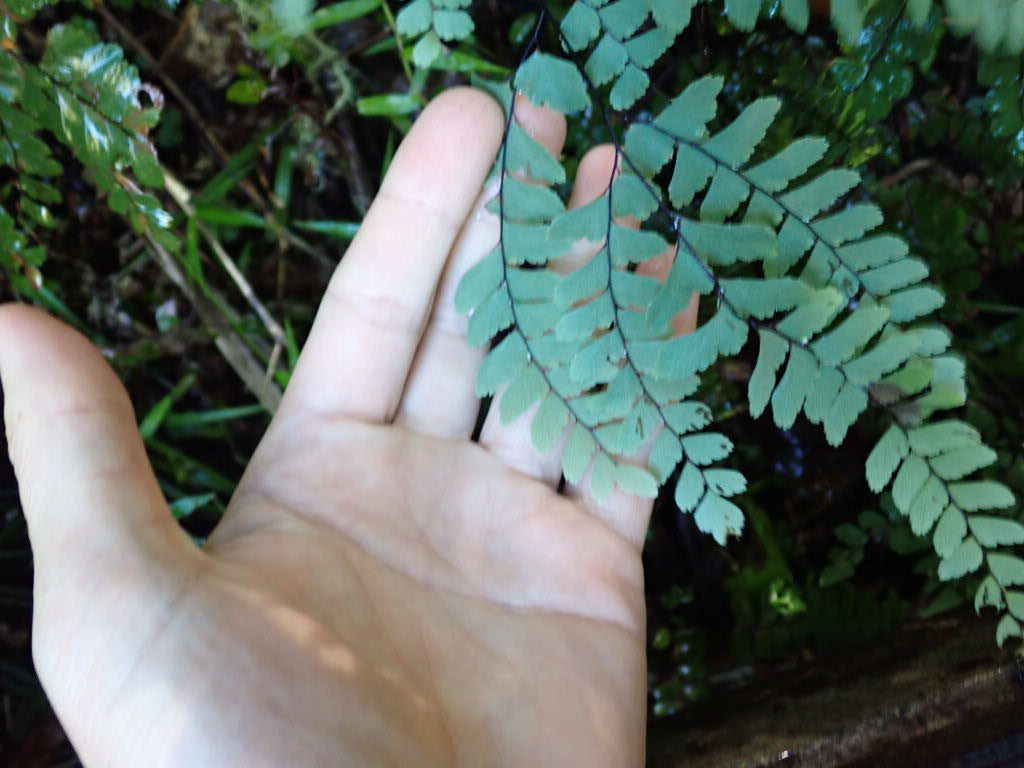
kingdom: Plantae
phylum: Tracheophyta
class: Polypodiopsida
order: Polypodiales
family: Pteridaceae
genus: Adiantum
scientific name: Adiantum cunninghamii
